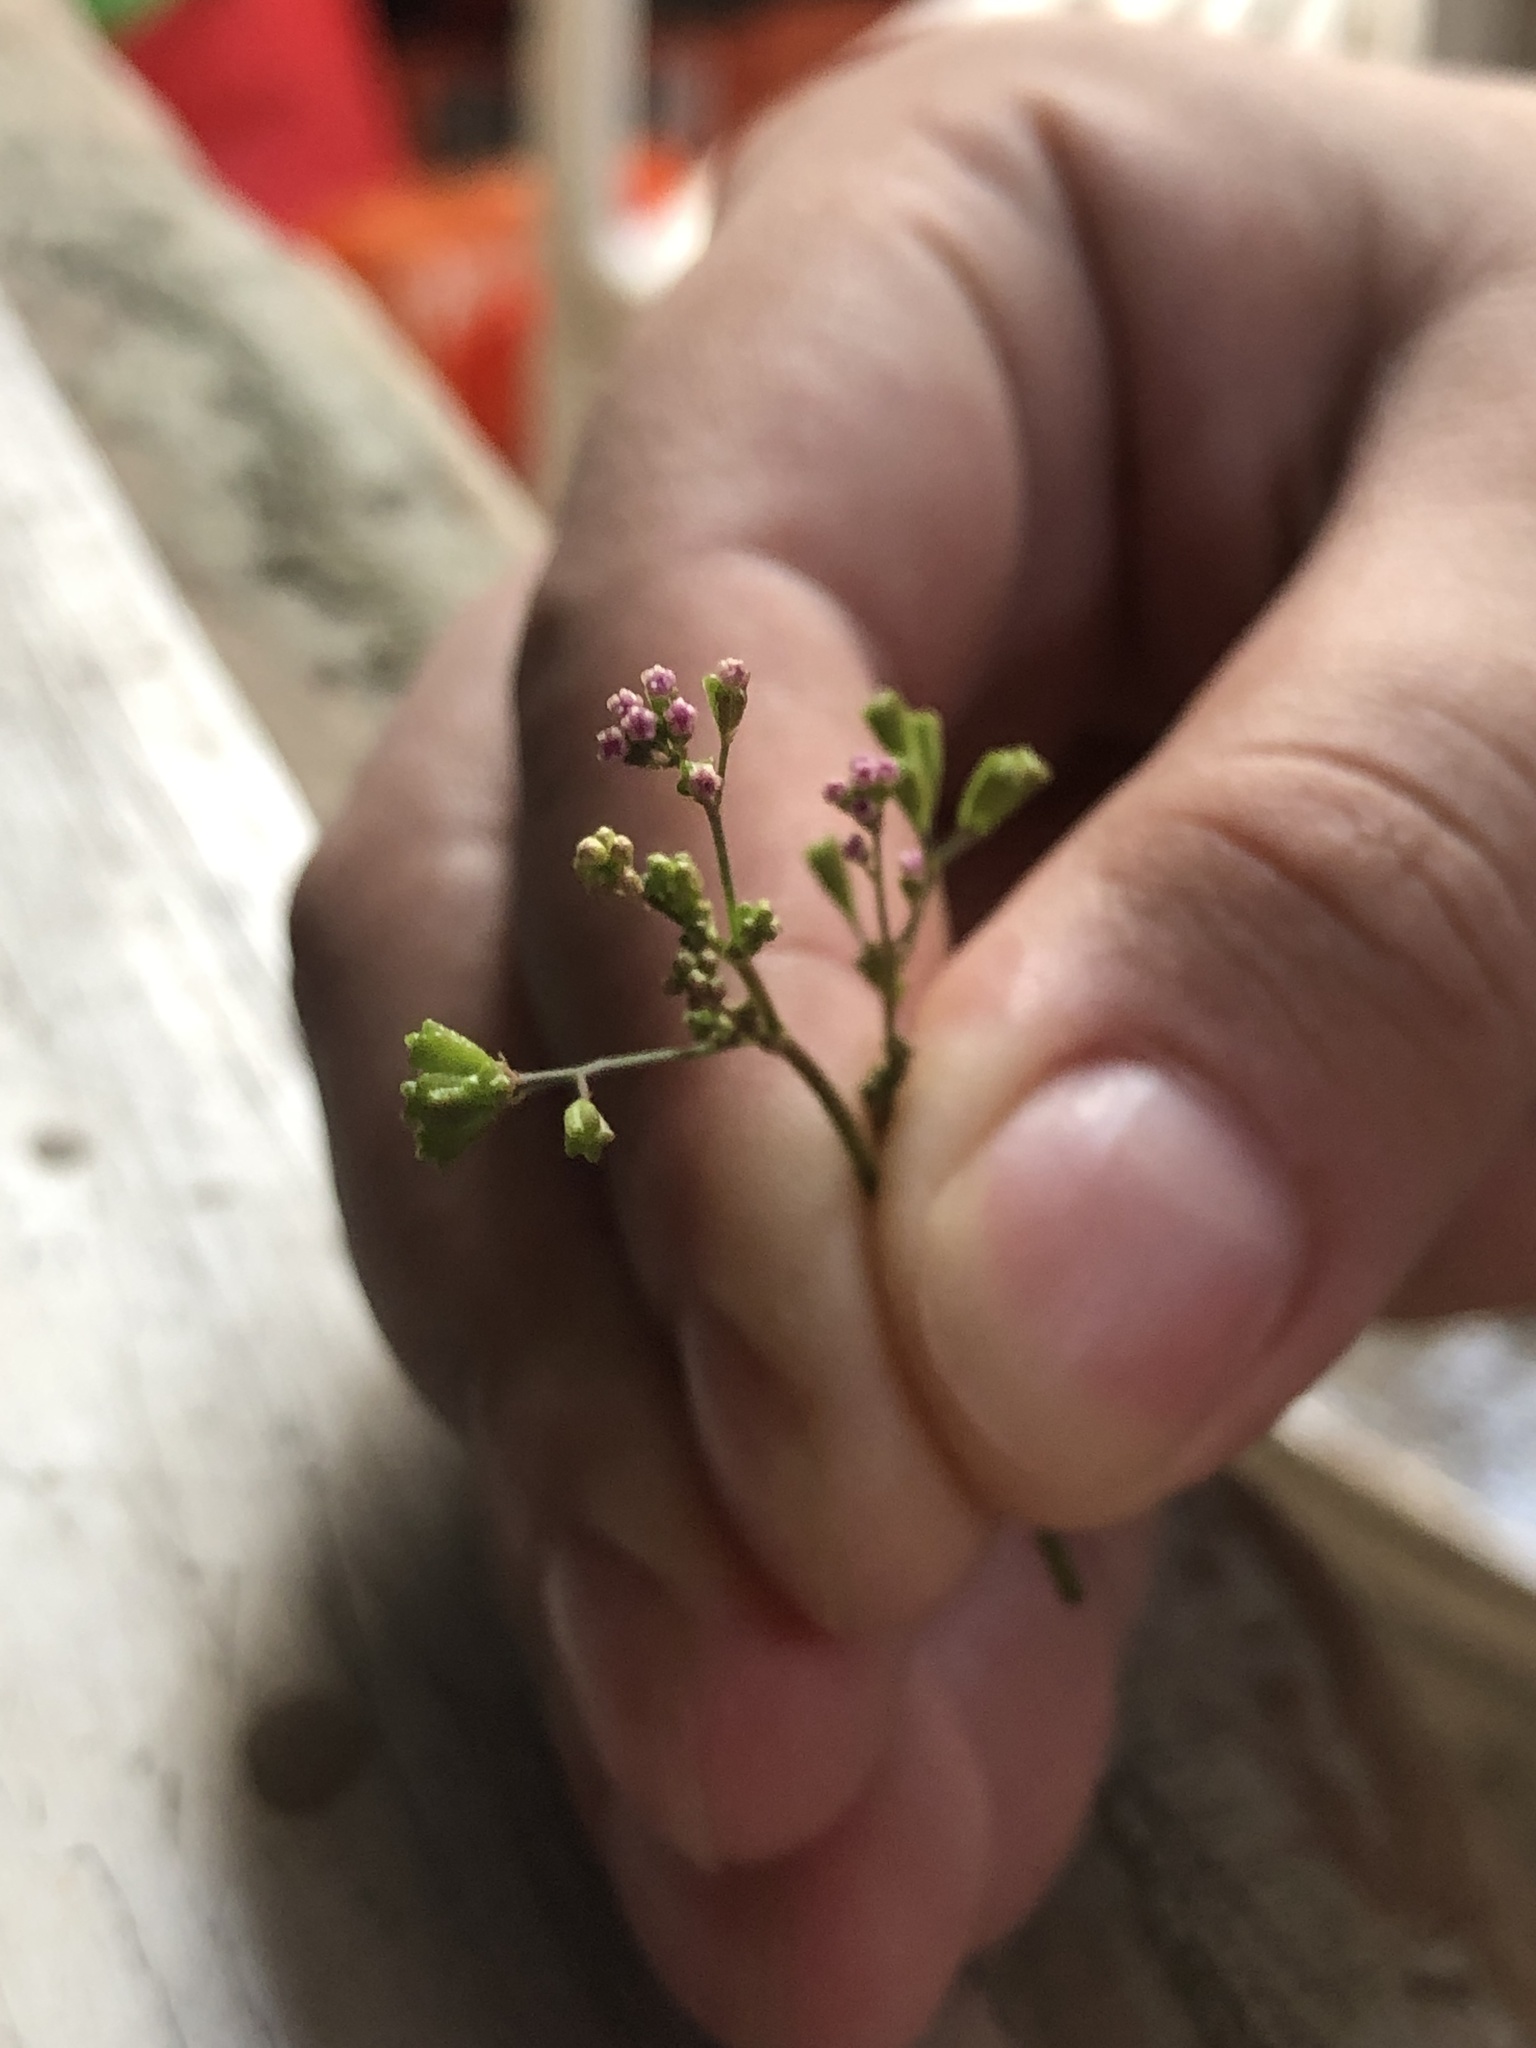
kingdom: Plantae
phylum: Tracheophyta
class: Magnoliopsida
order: Caryophyllales
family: Nyctaginaceae
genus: Boerhavia
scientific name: Boerhavia erecta
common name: Erect spiderling
